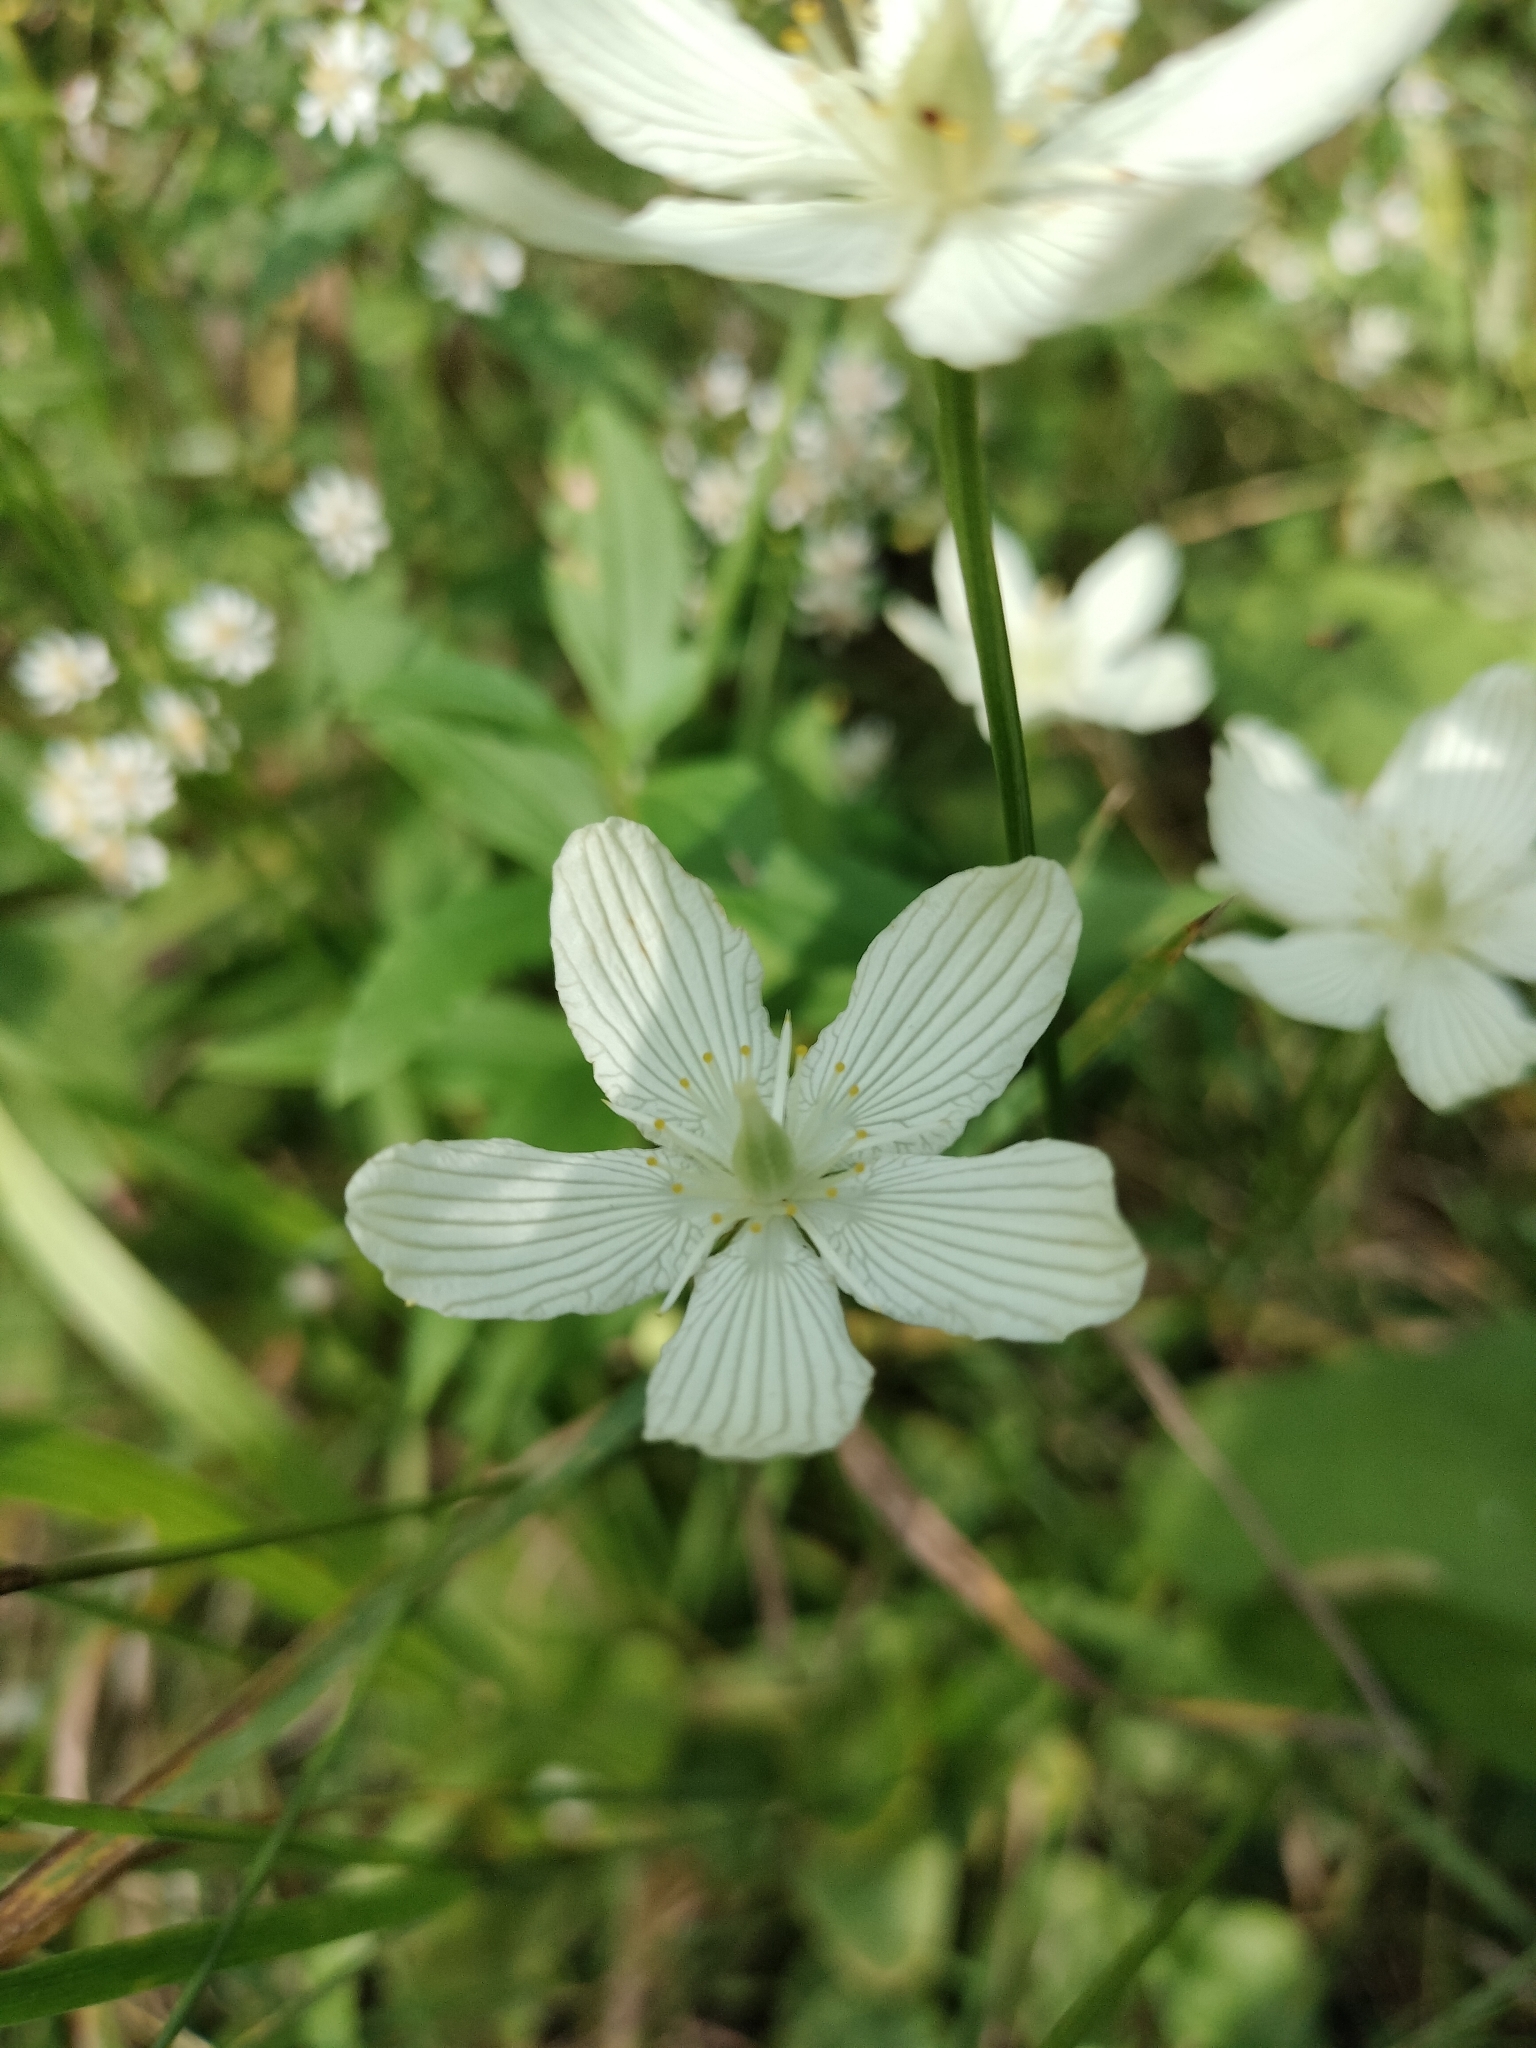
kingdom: Plantae
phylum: Tracheophyta
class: Magnoliopsida
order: Celastrales
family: Parnassiaceae
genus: Parnassia
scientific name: Parnassia glauca
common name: American grass-of-parnassus
